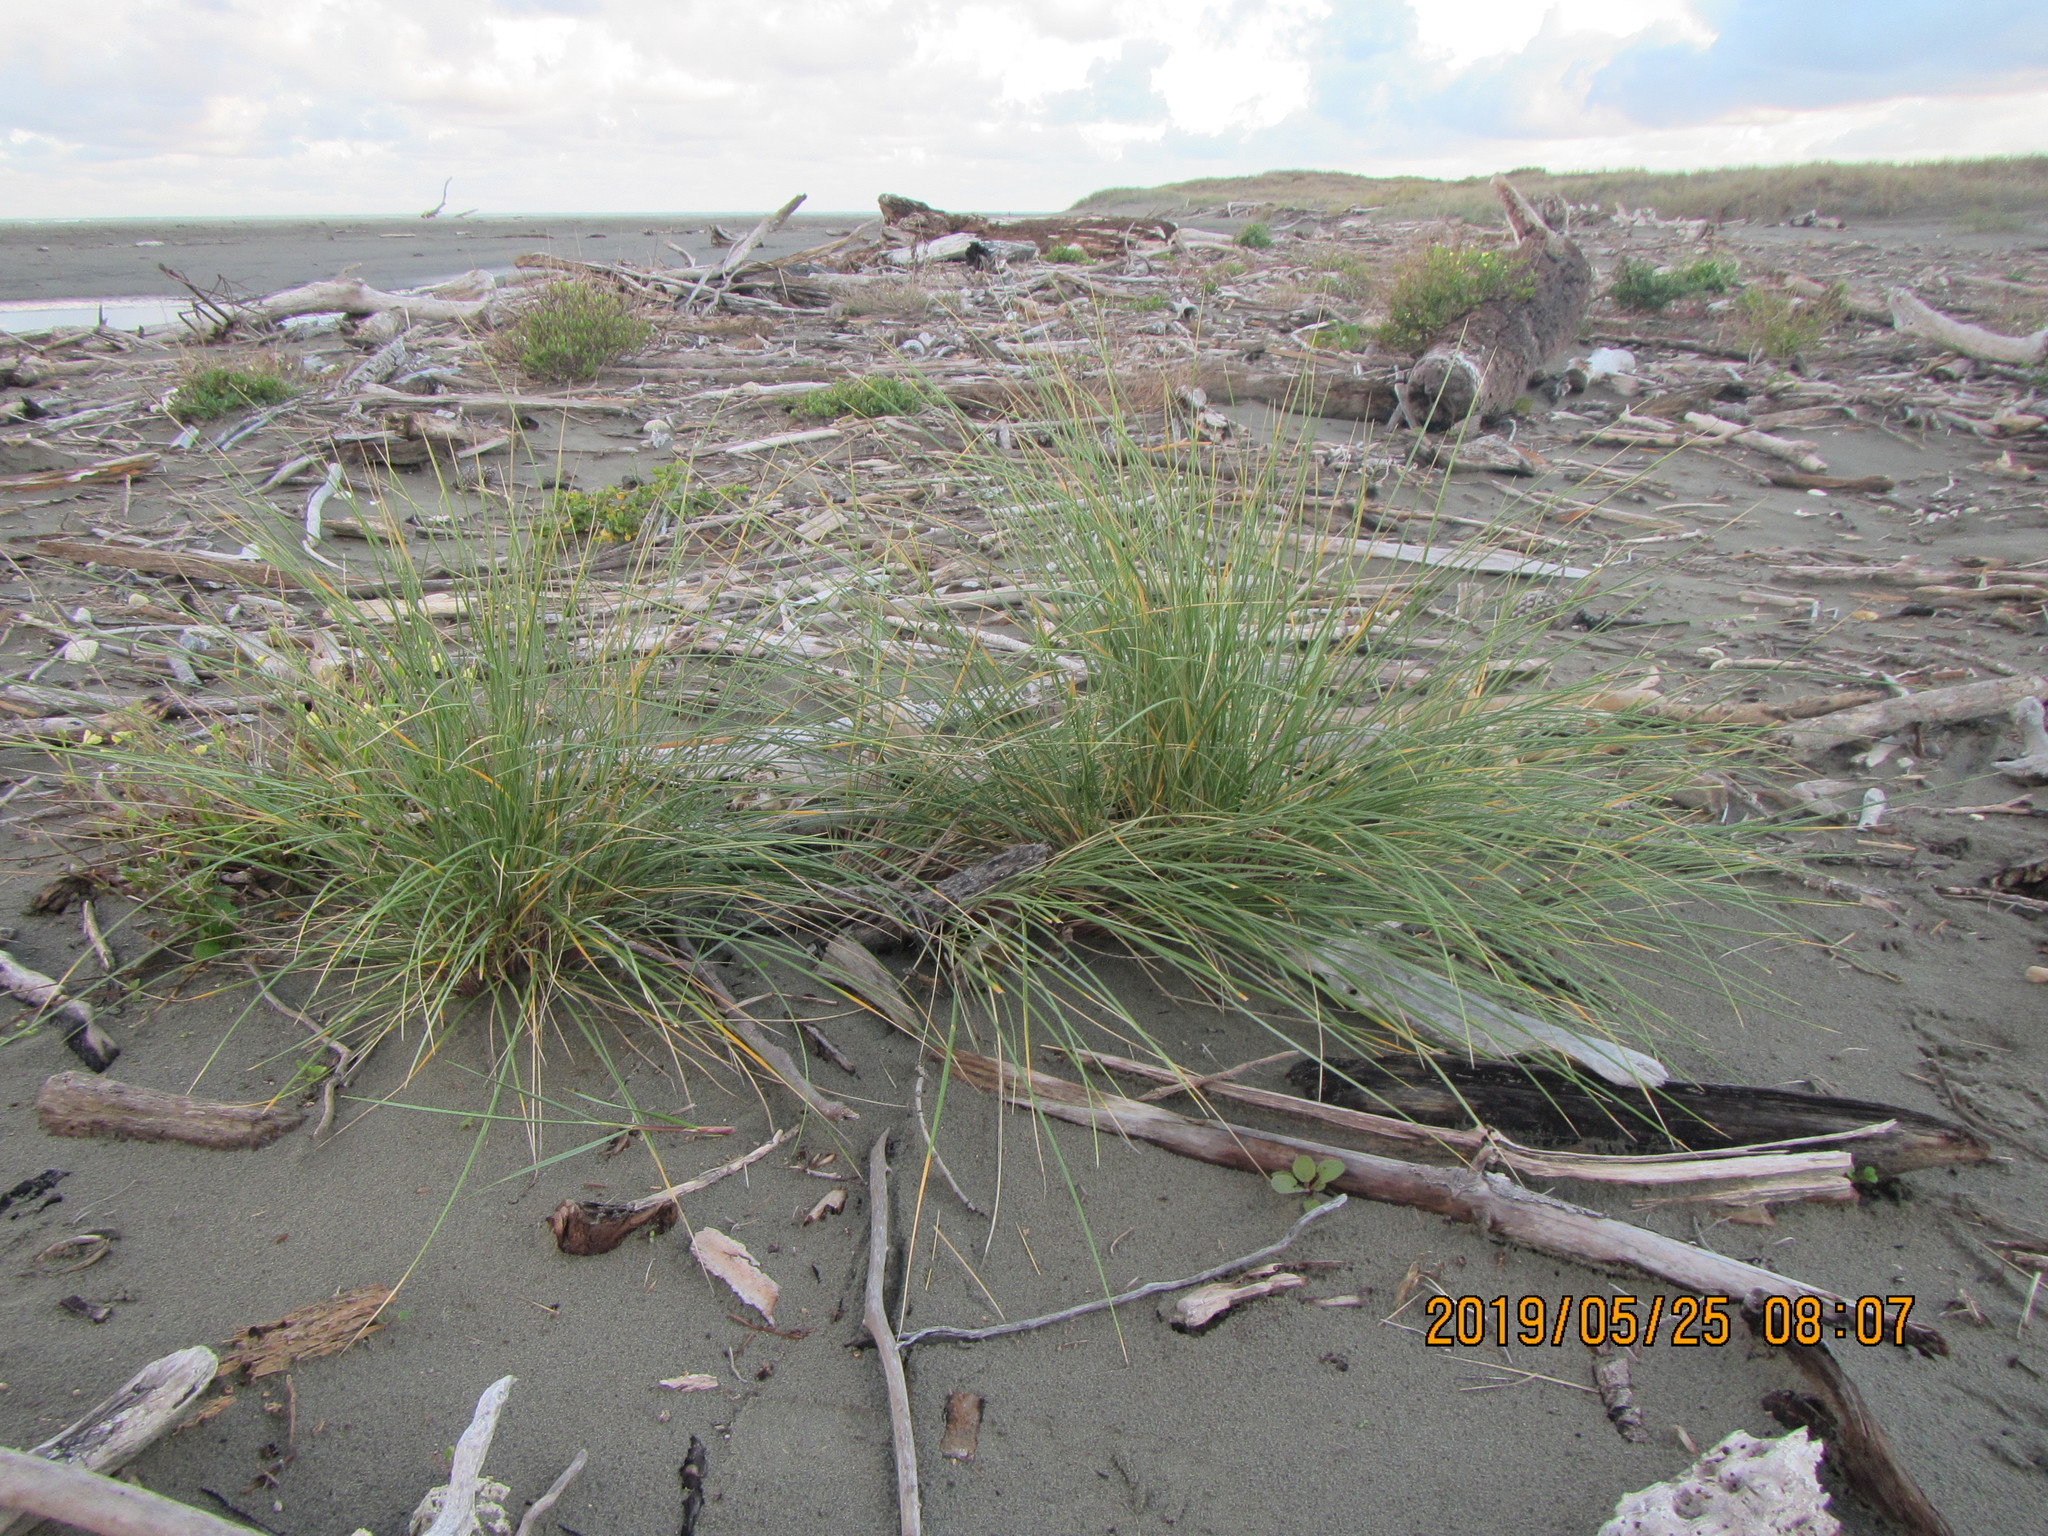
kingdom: Plantae
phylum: Tracheophyta
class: Liliopsida
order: Poales
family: Poaceae
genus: Calamagrostis
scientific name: Calamagrostis arenaria
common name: European beachgrass
